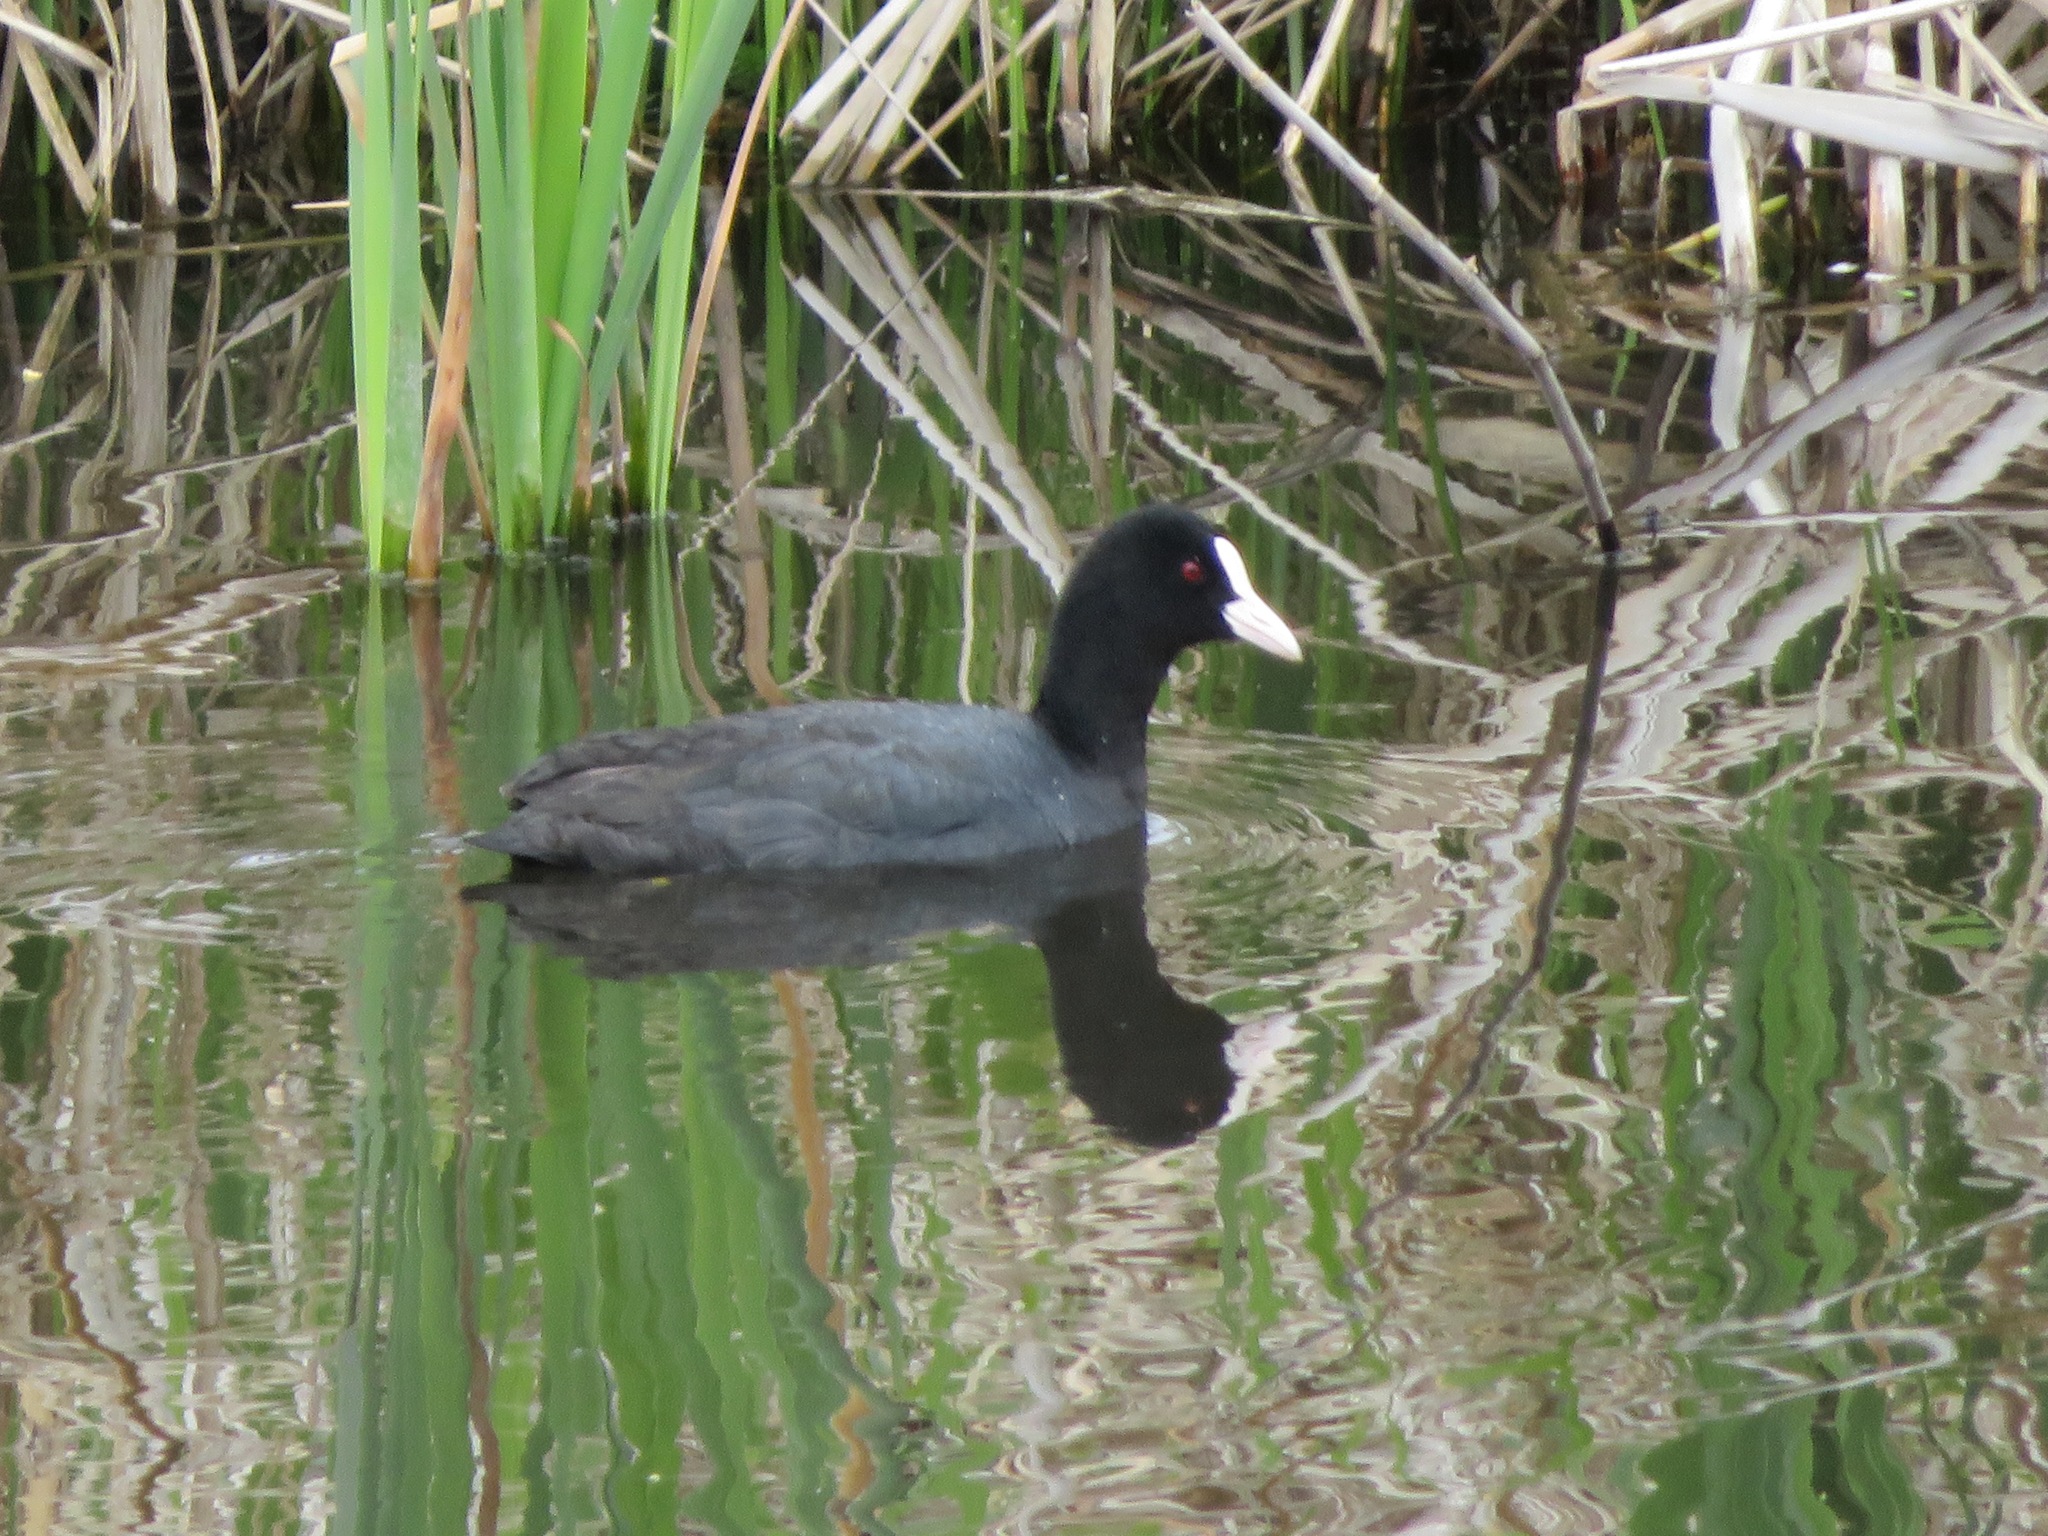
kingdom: Animalia
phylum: Chordata
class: Aves
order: Gruiformes
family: Rallidae
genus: Fulica
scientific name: Fulica atra
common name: Eurasian coot
